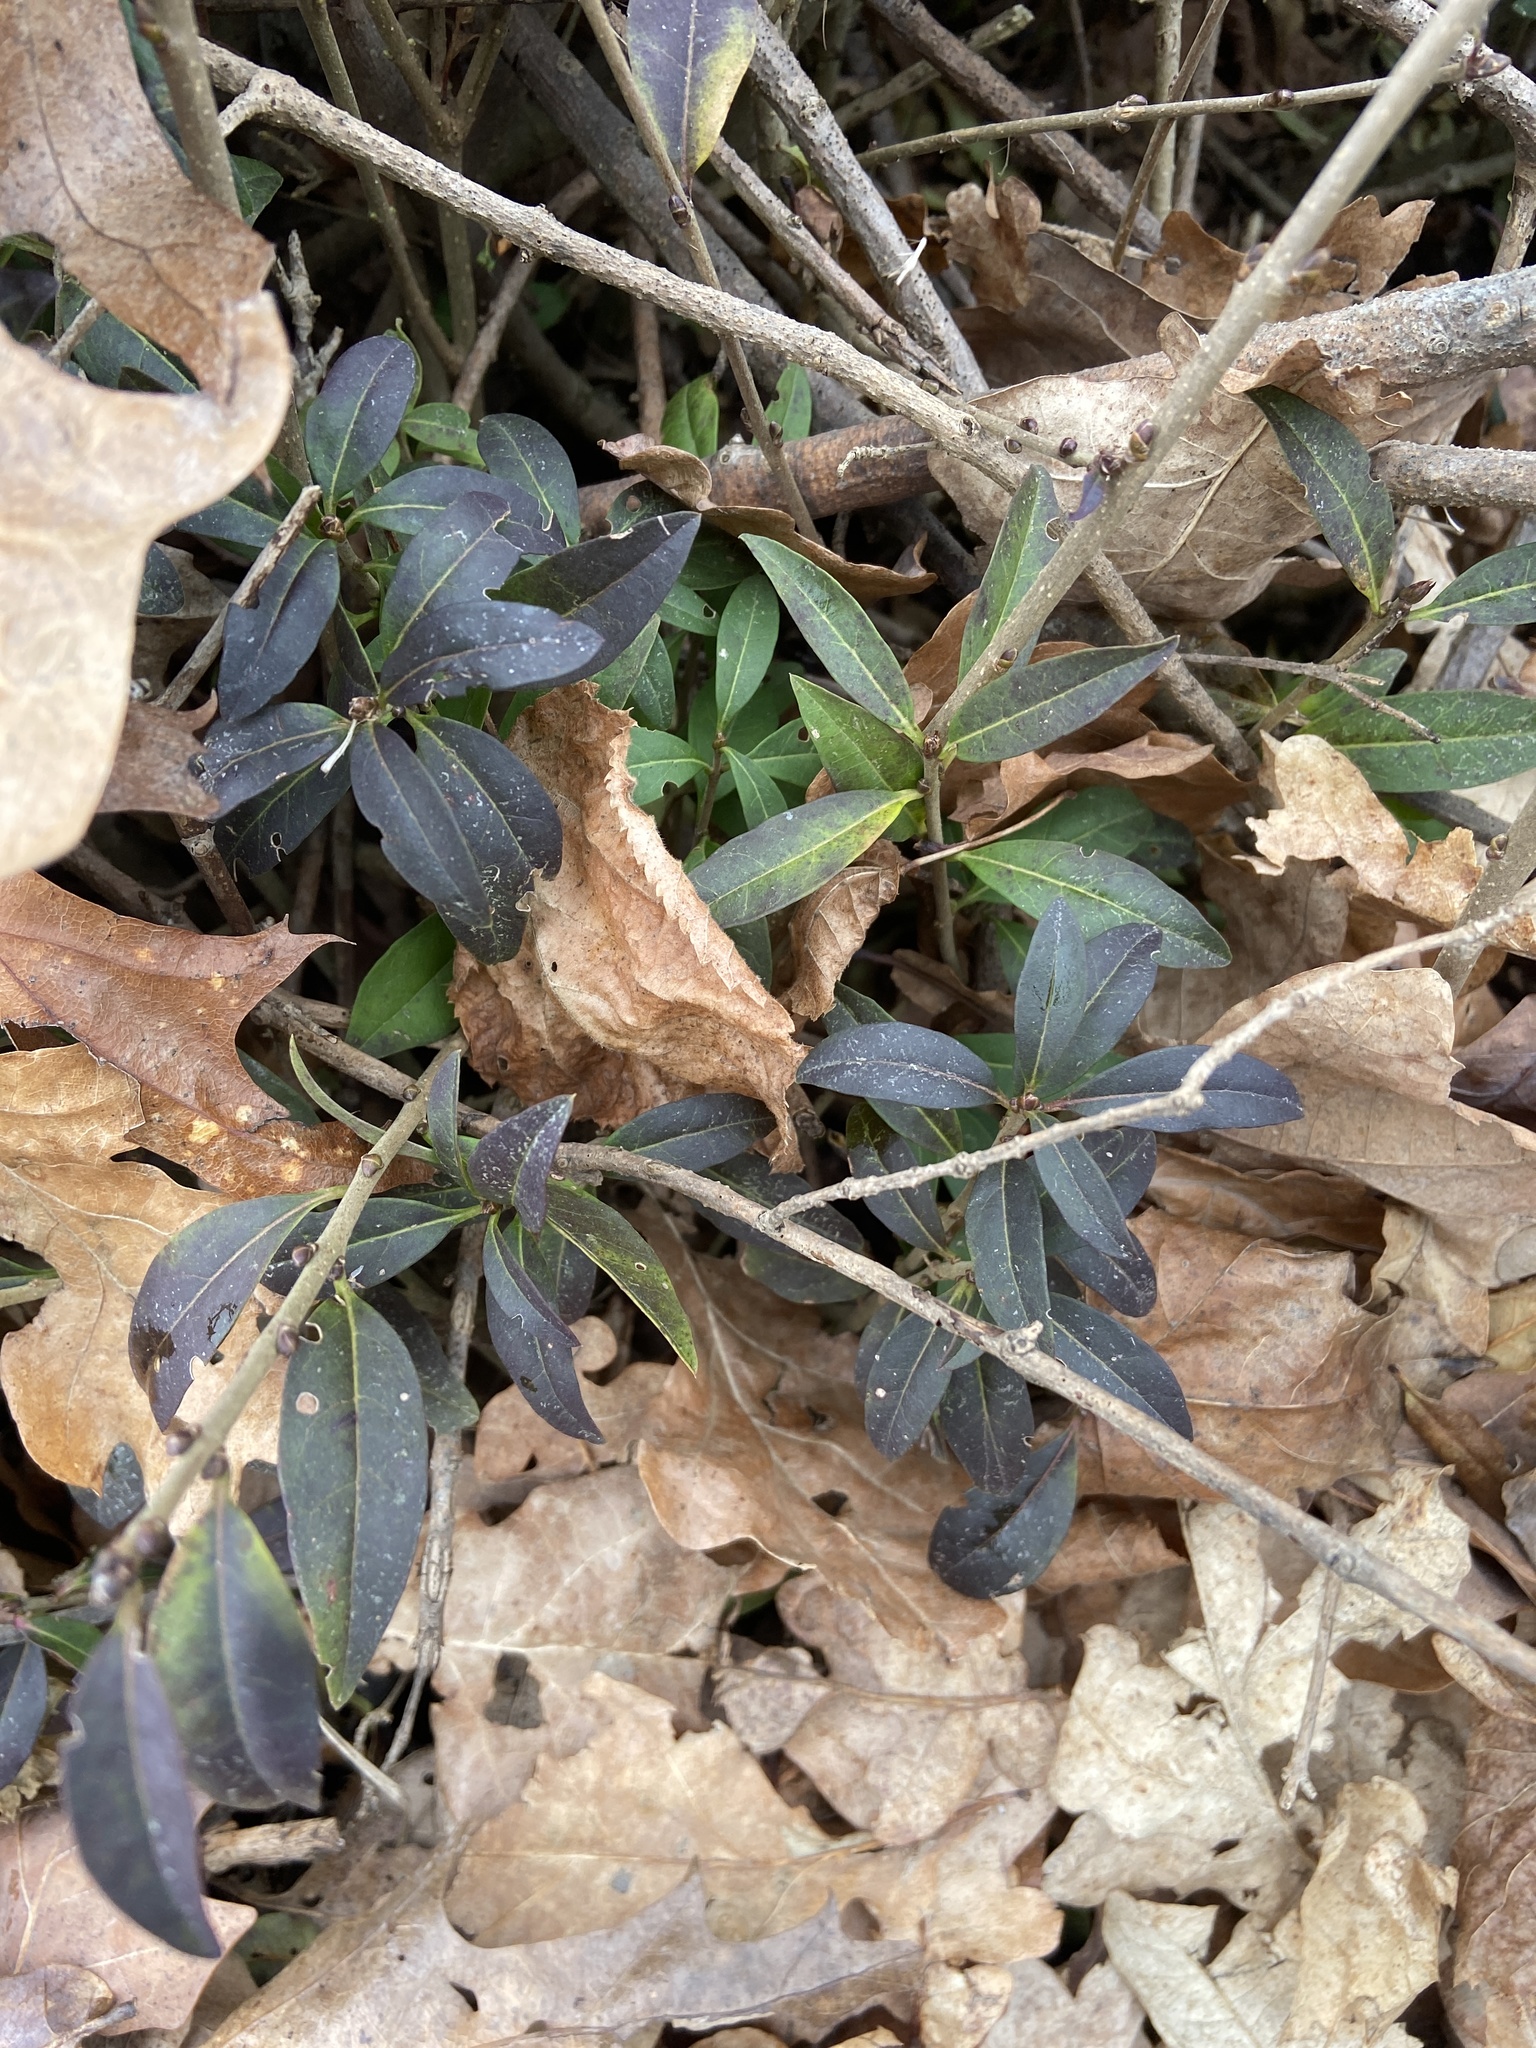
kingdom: Plantae
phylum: Tracheophyta
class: Magnoliopsida
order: Gentianales
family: Apocynaceae
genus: Vinca
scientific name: Vinca minor
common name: Lesser periwinkle
